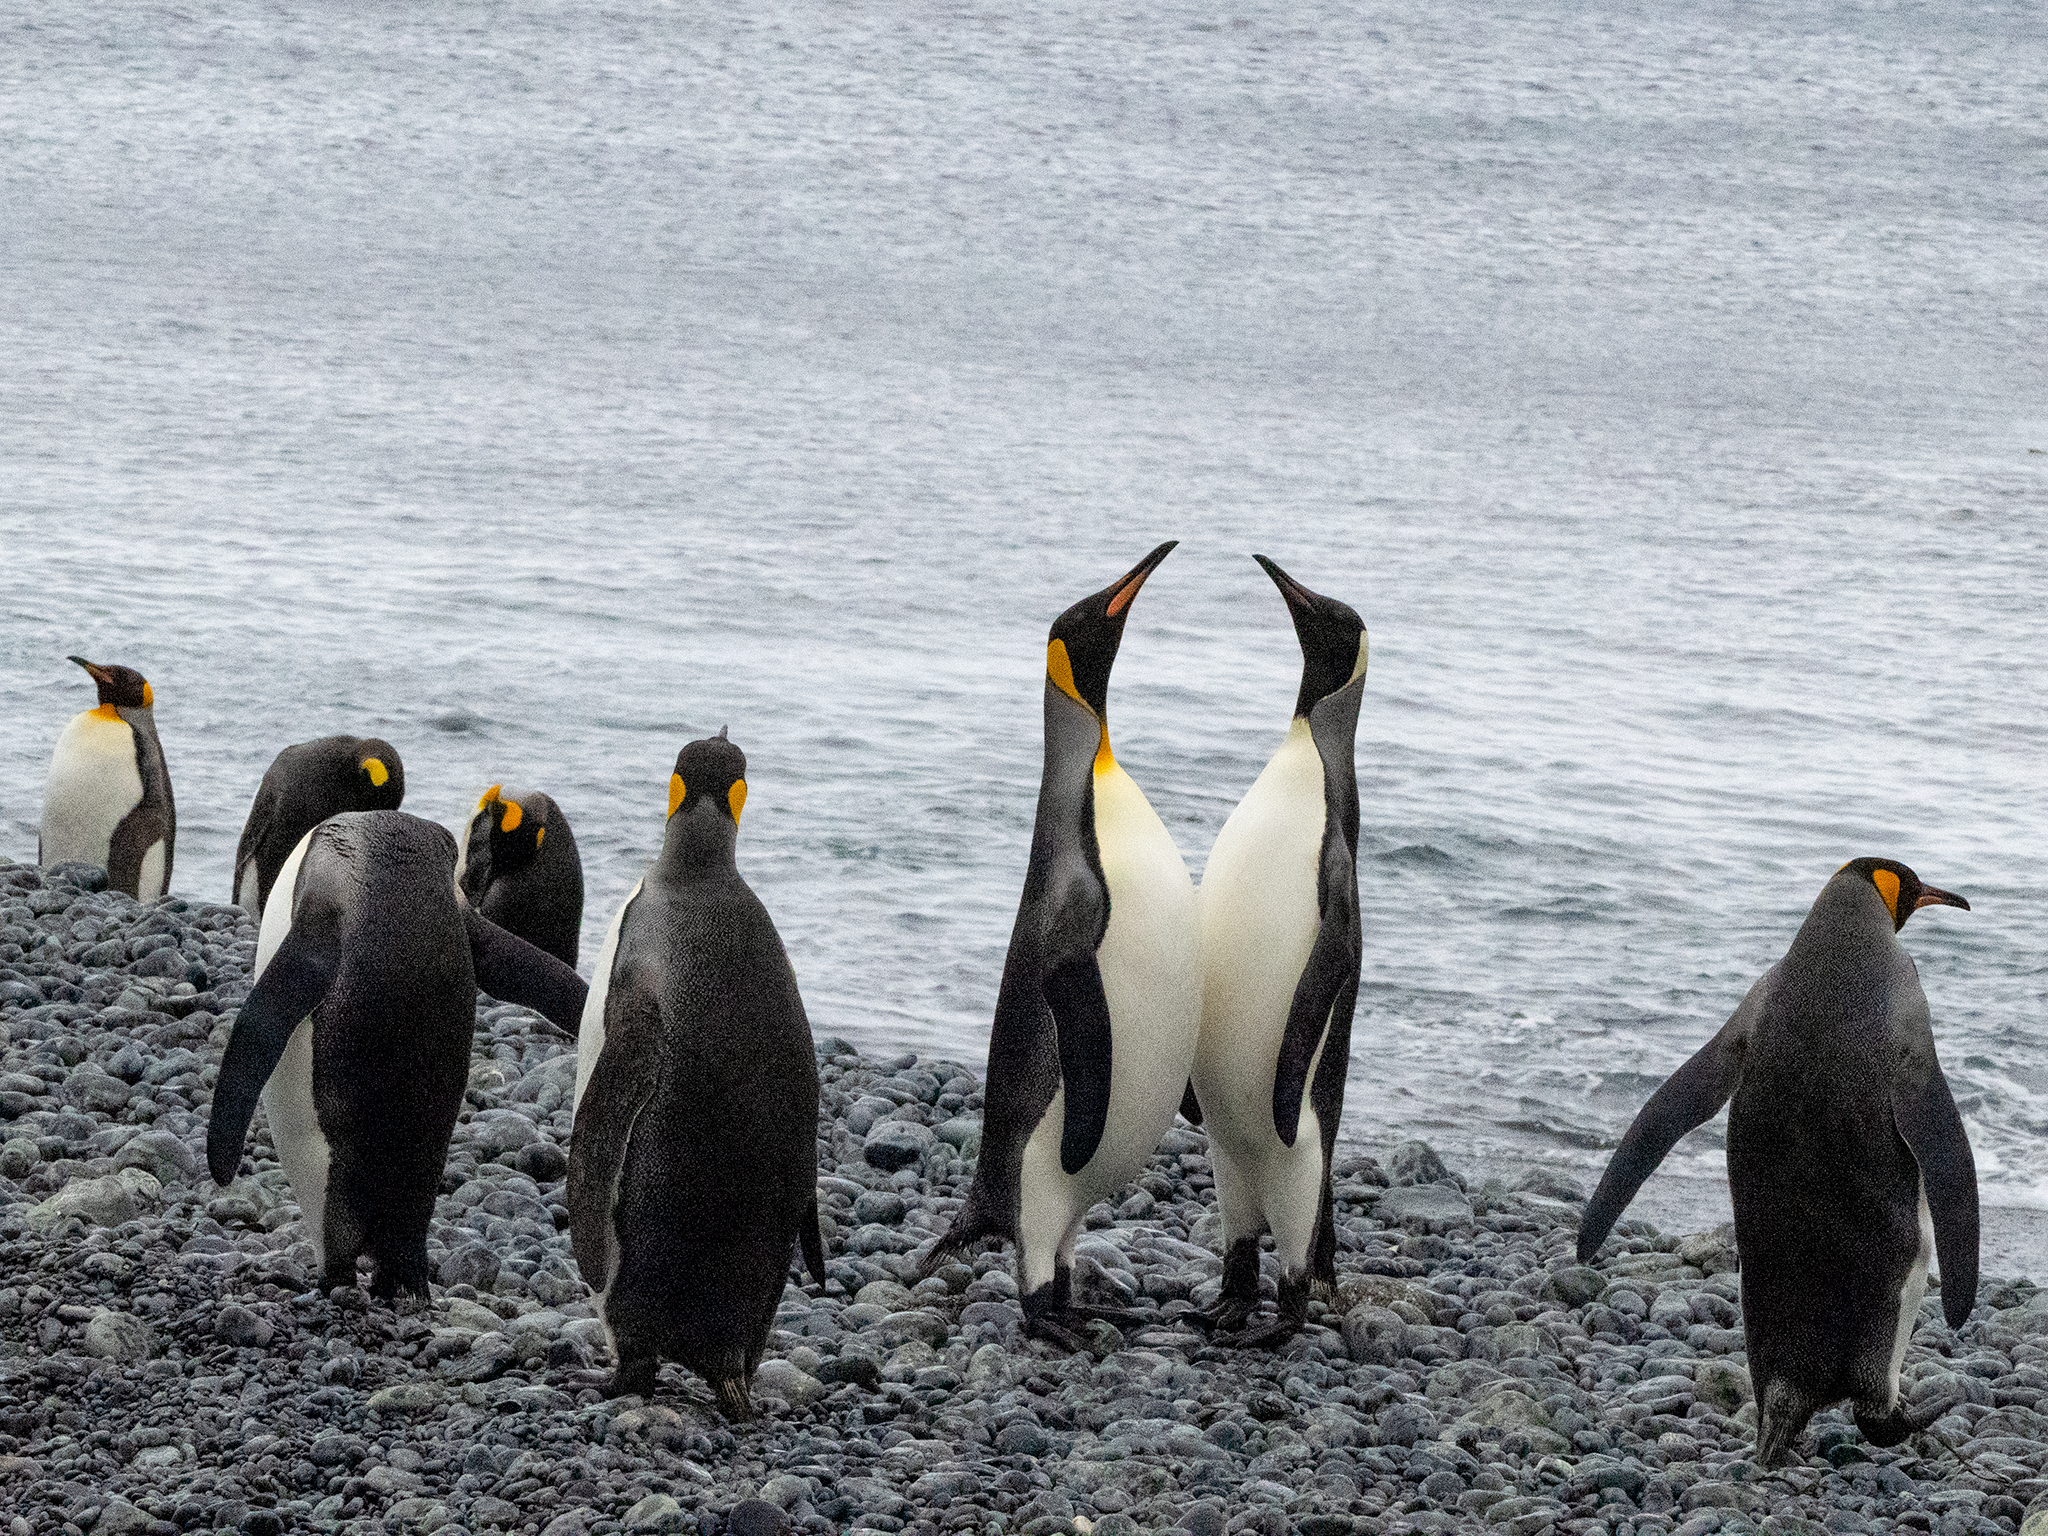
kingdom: Animalia
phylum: Chordata
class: Aves
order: Sphenisciformes
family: Spheniscidae
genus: Aptenodytes
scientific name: Aptenodytes patagonicus
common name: King penguin
